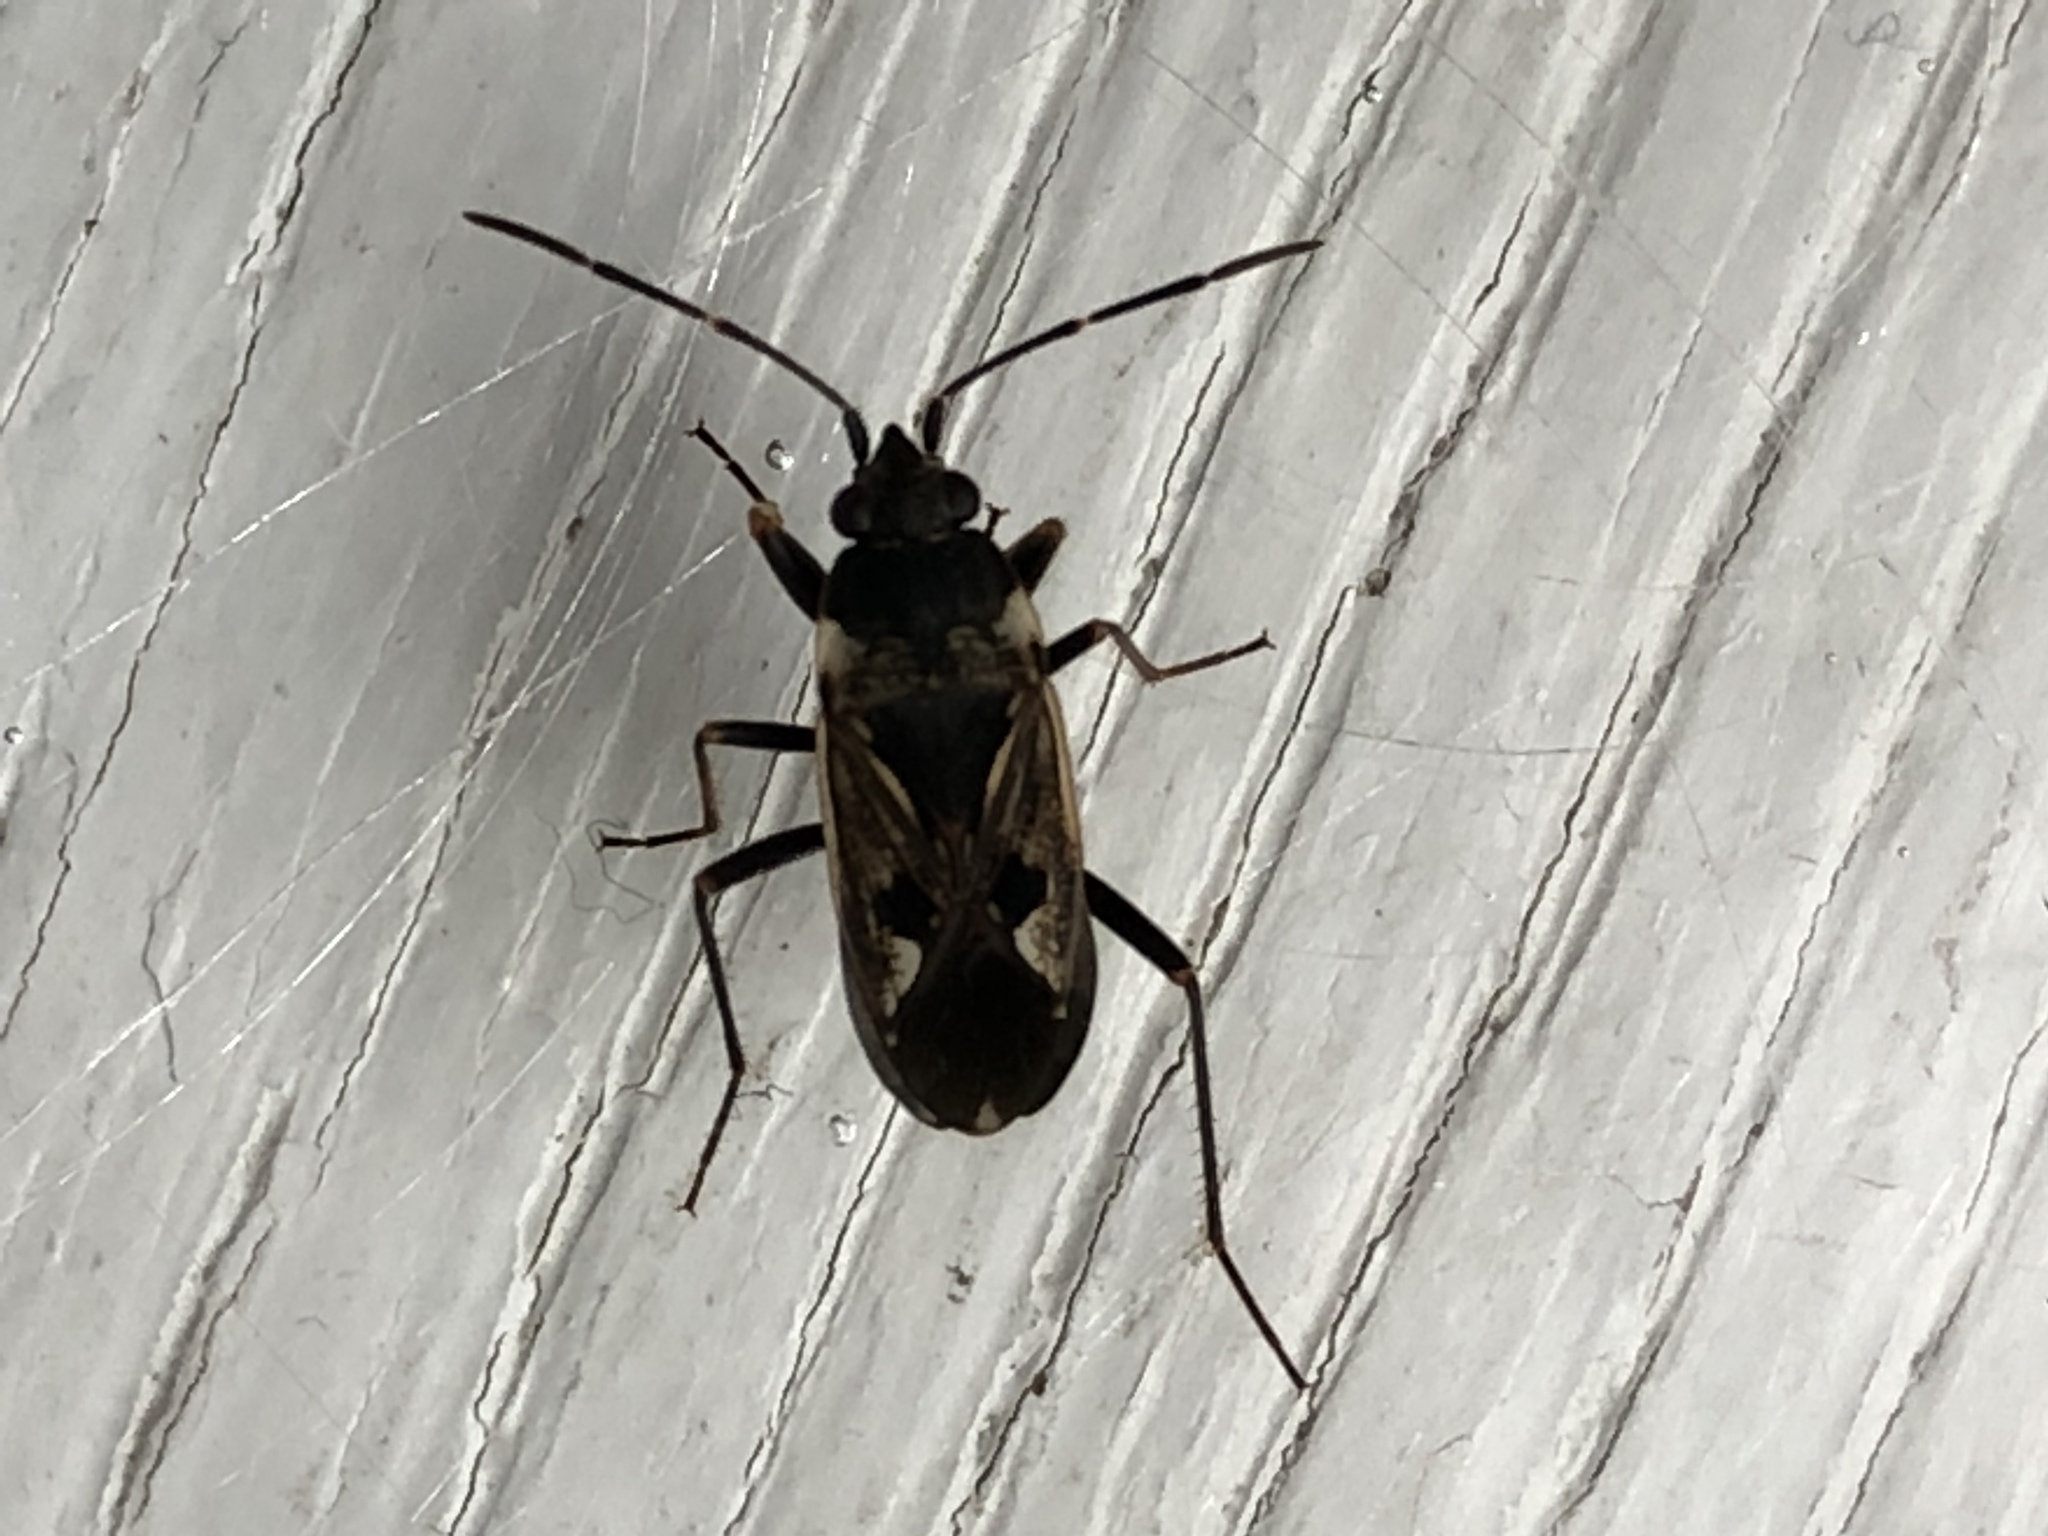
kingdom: Animalia
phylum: Arthropoda
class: Insecta
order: Hemiptera
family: Rhyparochromidae
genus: Rhyparochromus
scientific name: Rhyparochromus vulgaris
